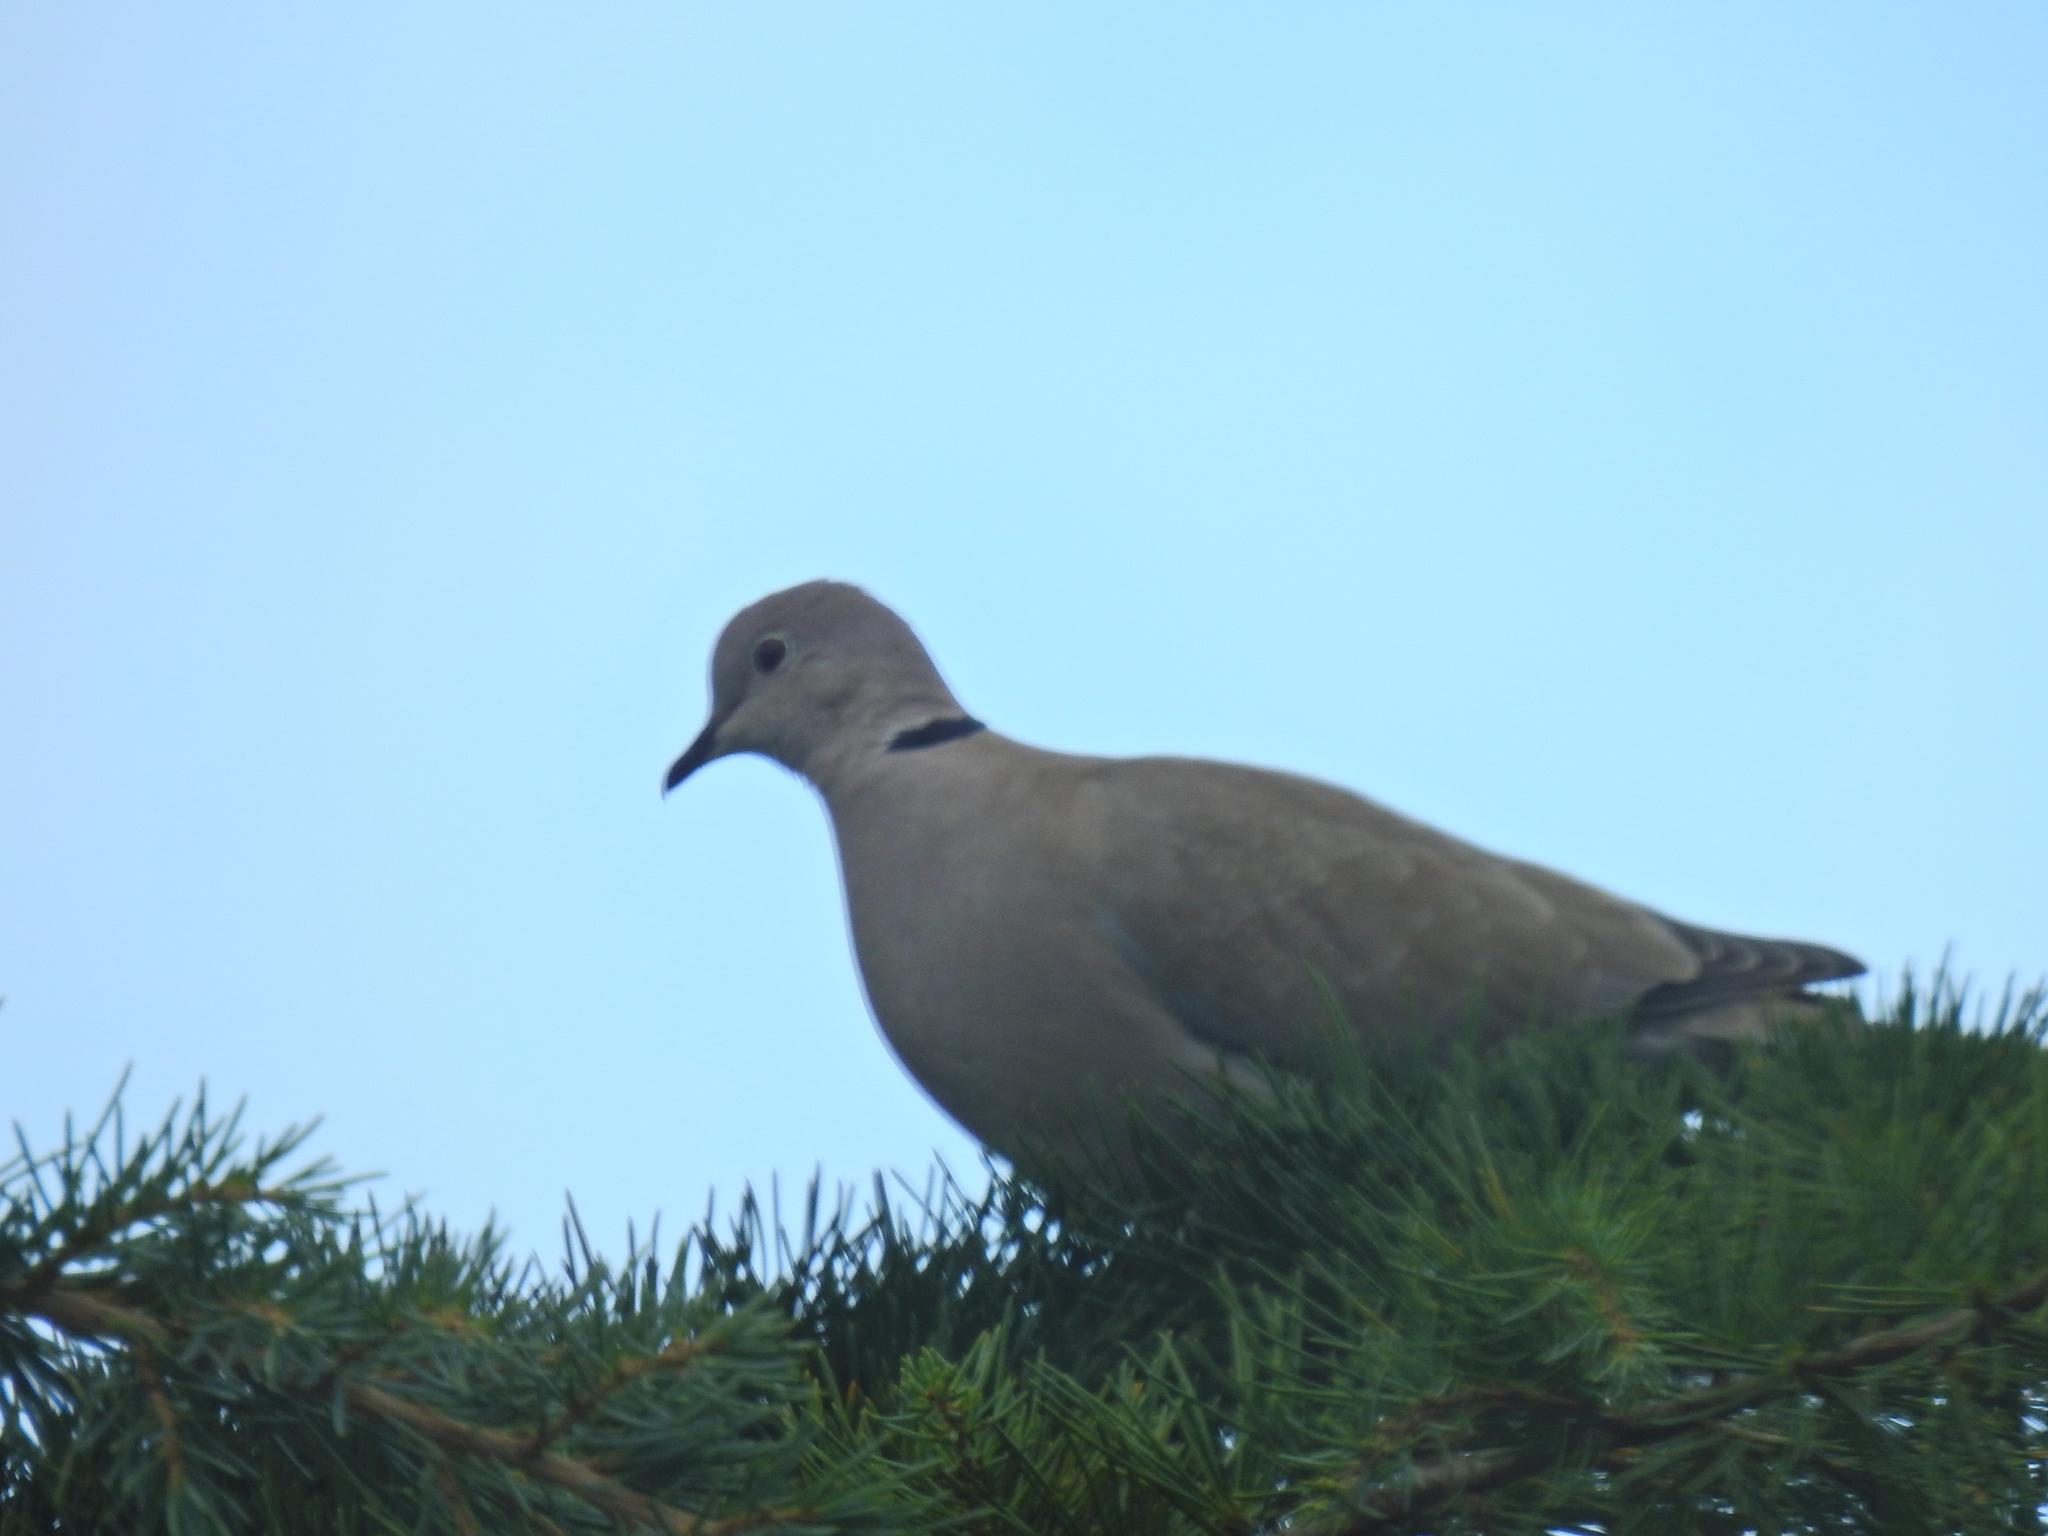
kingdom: Animalia
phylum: Chordata
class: Aves
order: Columbiformes
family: Columbidae
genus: Streptopelia
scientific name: Streptopelia decaocto
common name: Eurasian collared dove
